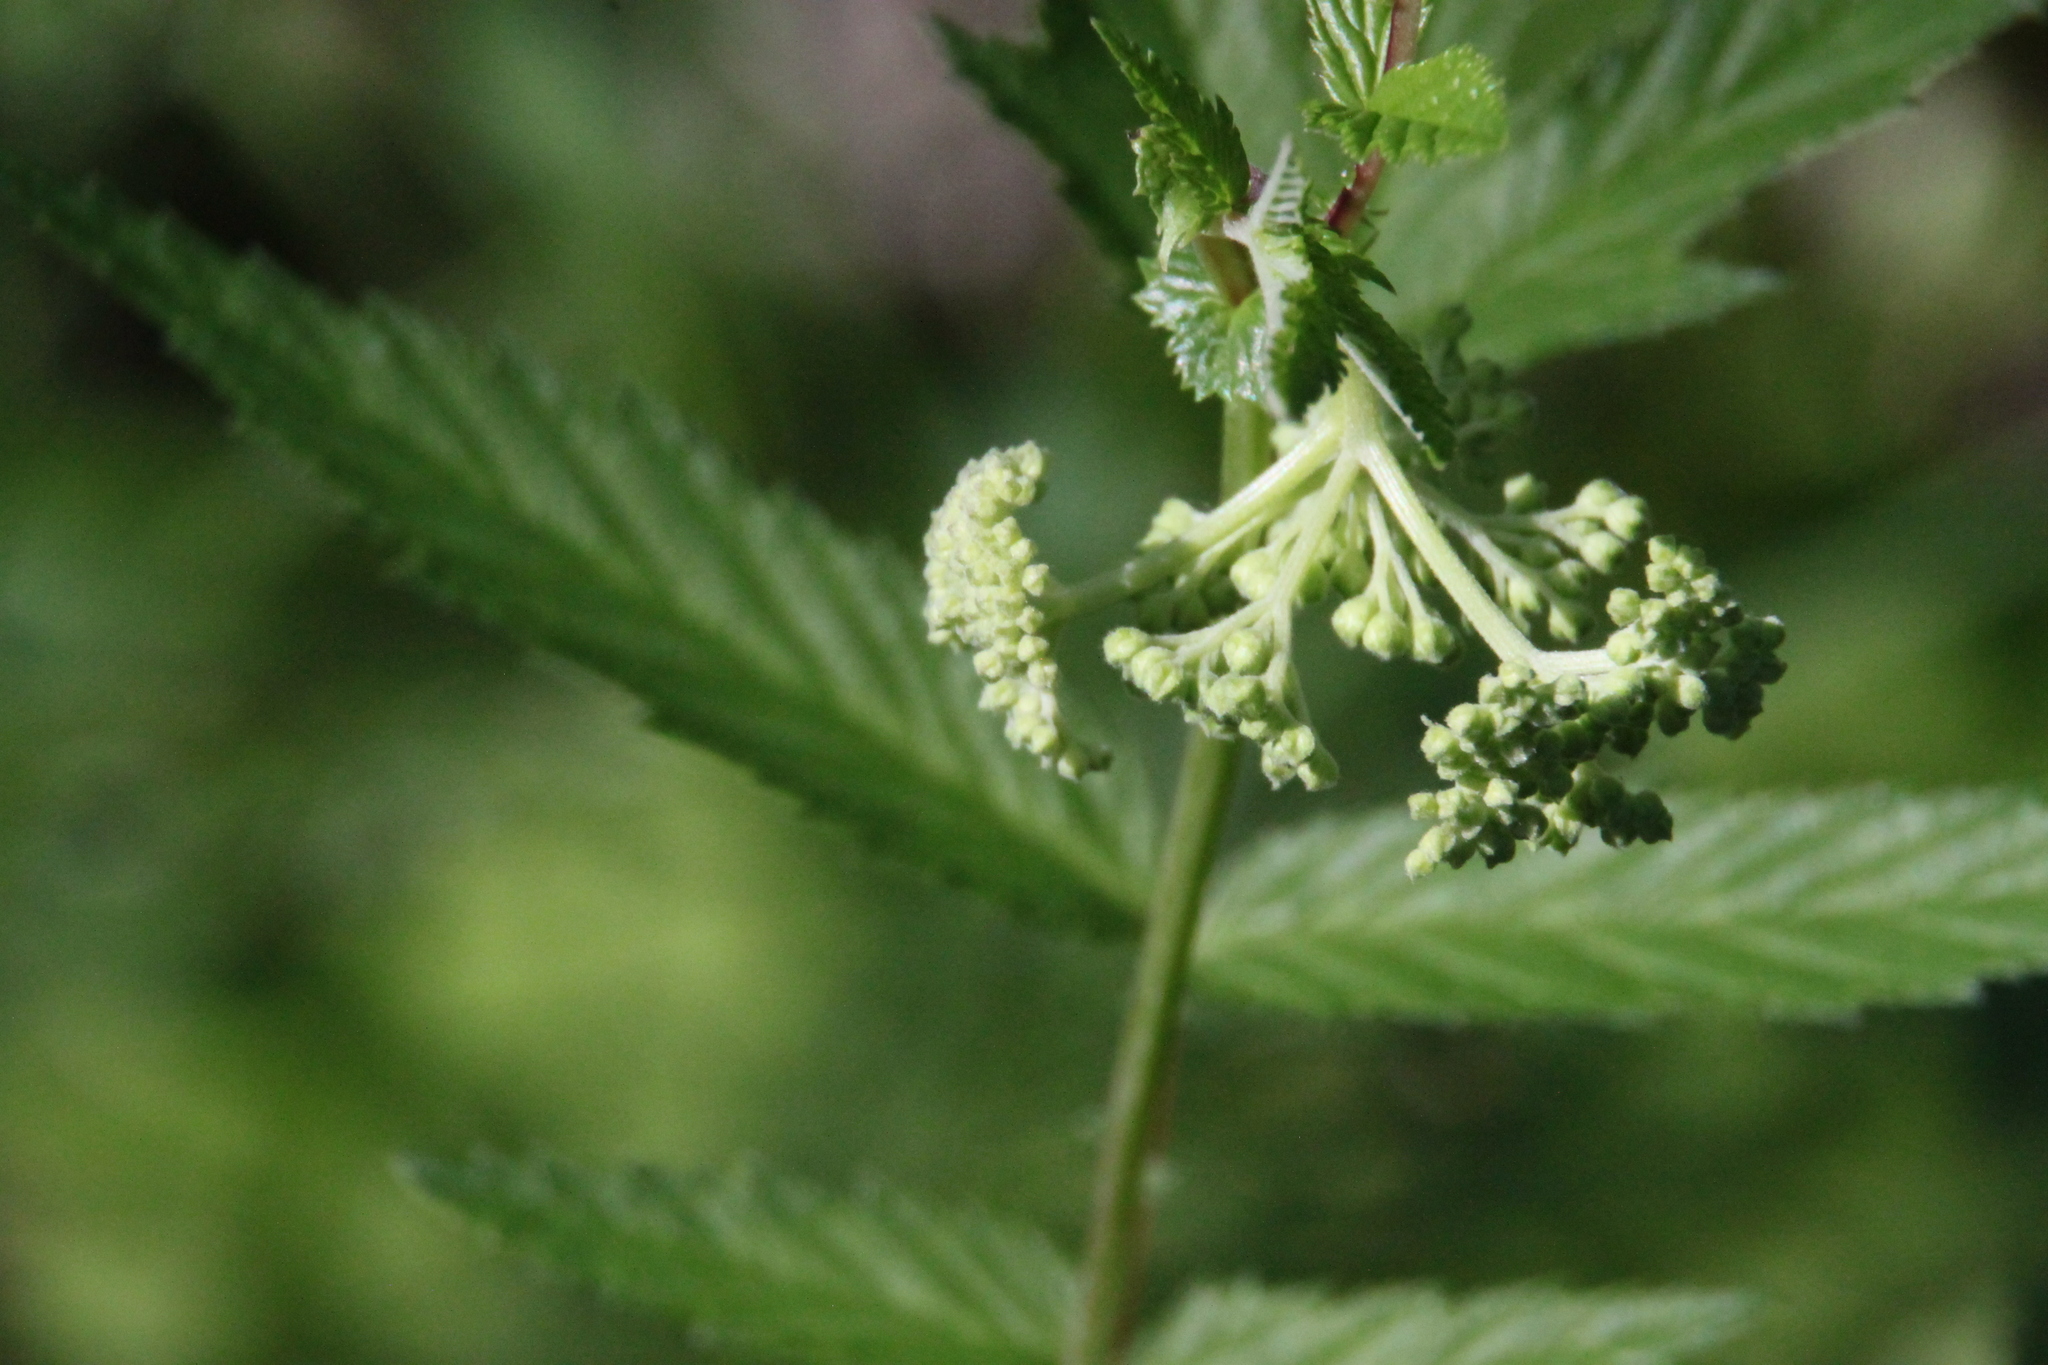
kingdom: Plantae
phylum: Tracheophyta
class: Magnoliopsida
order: Rosales
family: Rosaceae
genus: Filipendula
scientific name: Filipendula ulmaria
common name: Meadowsweet
